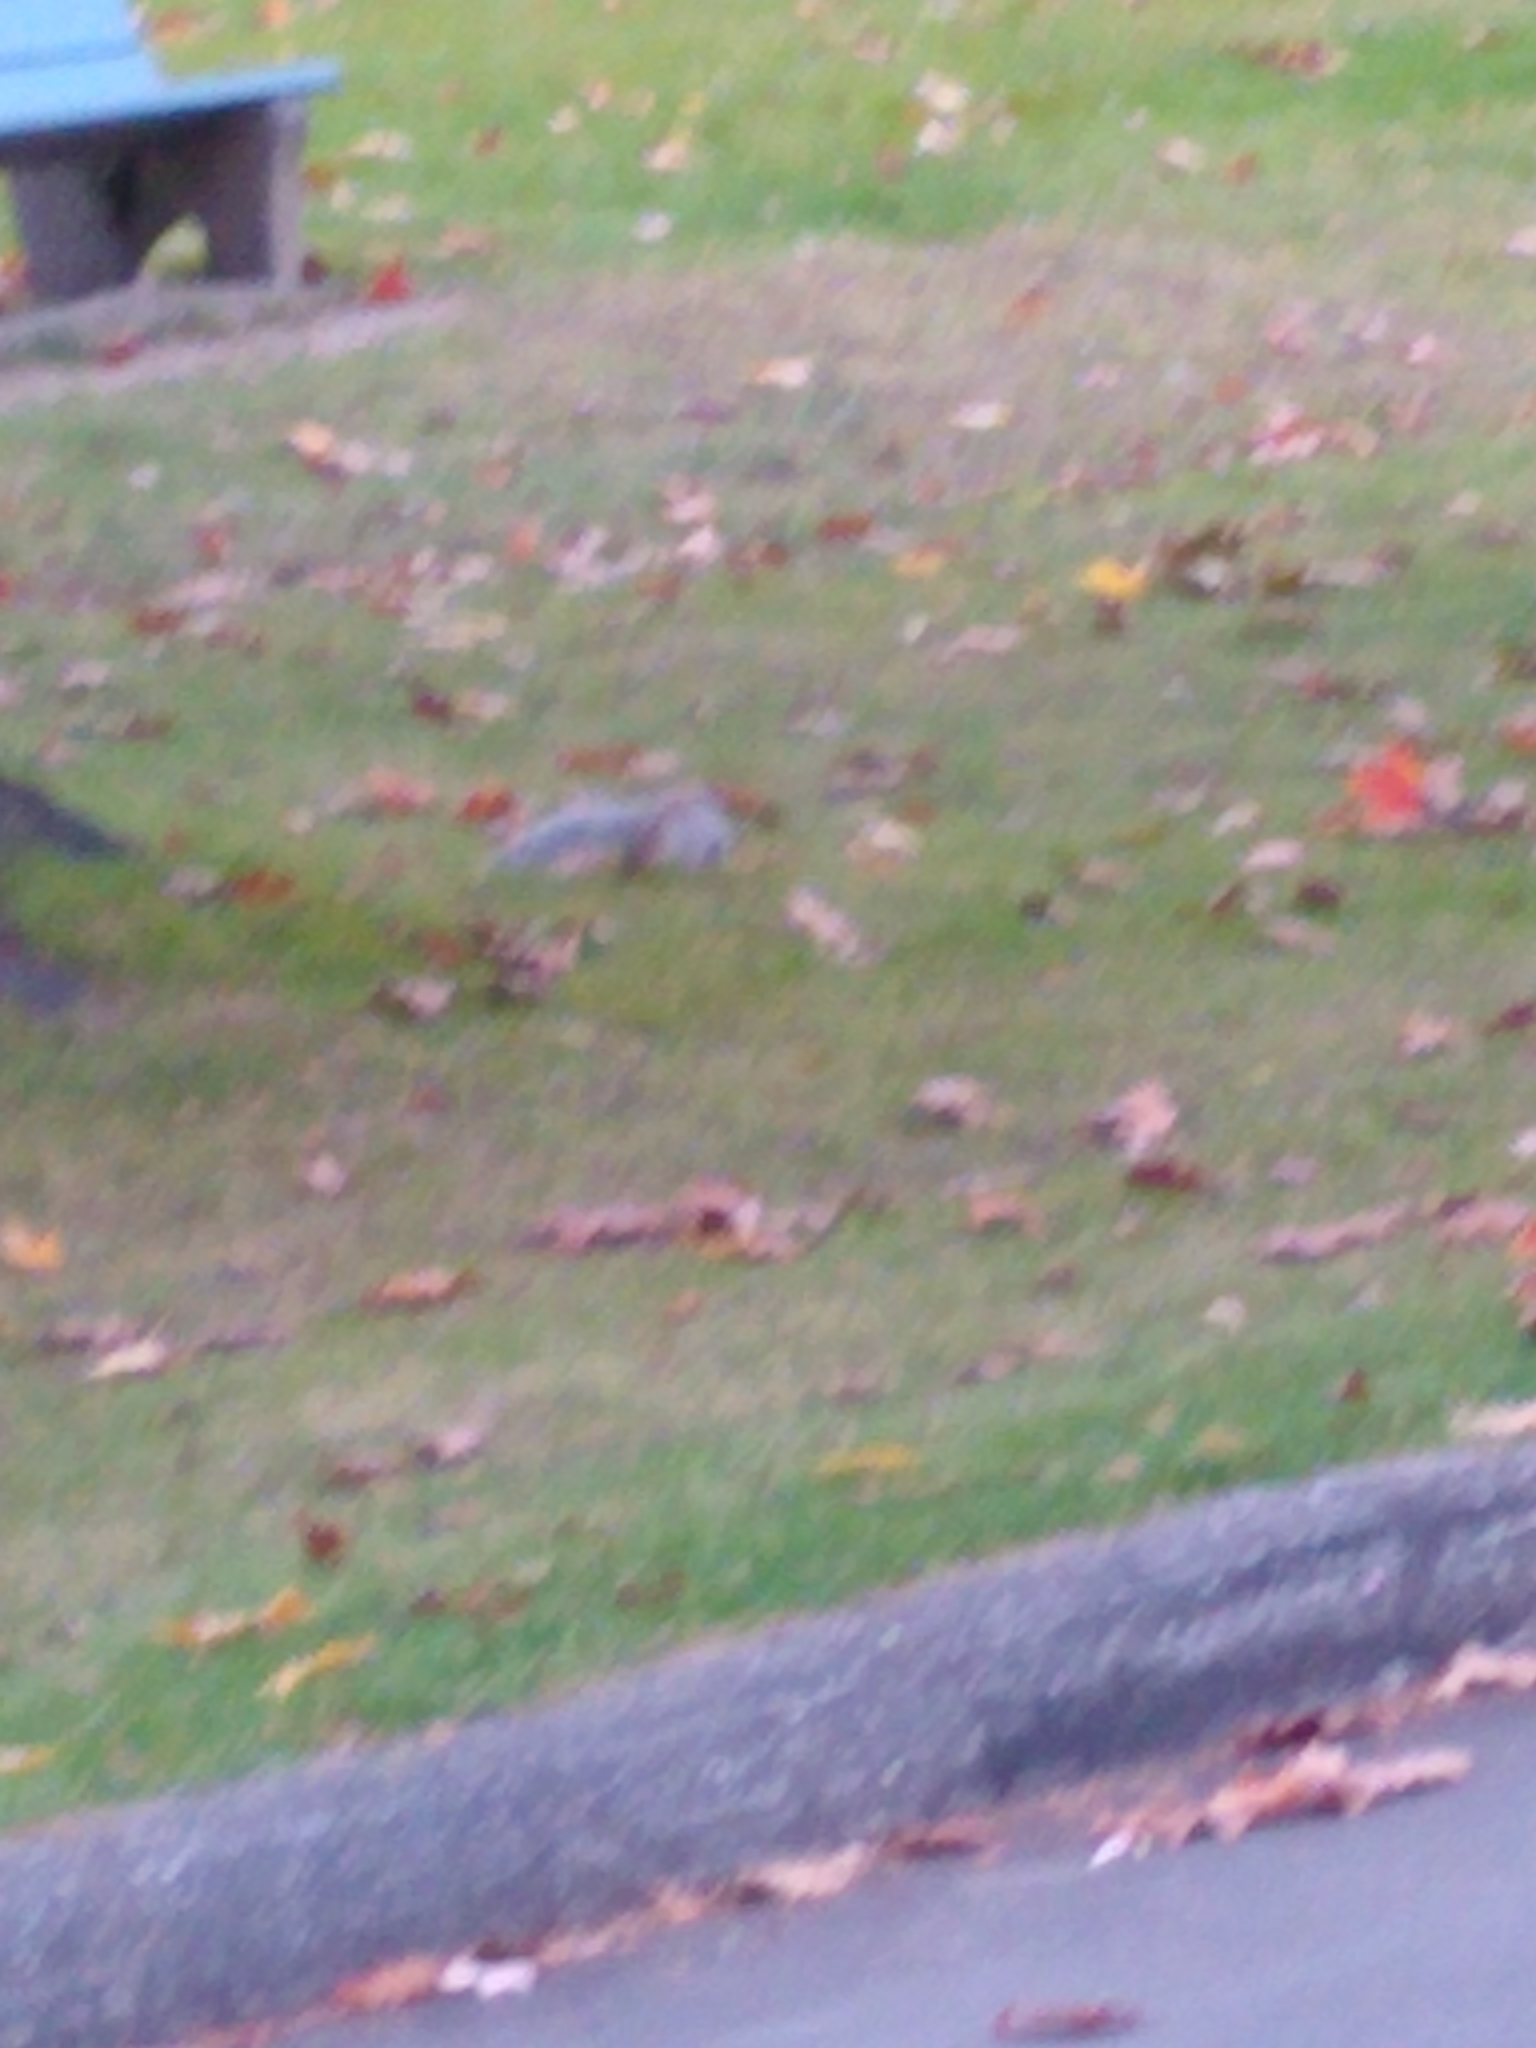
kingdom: Animalia
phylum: Chordata
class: Mammalia
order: Rodentia
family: Sciuridae
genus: Sciurus
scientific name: Sciurus carolinensis
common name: Eastern gray squirrel
